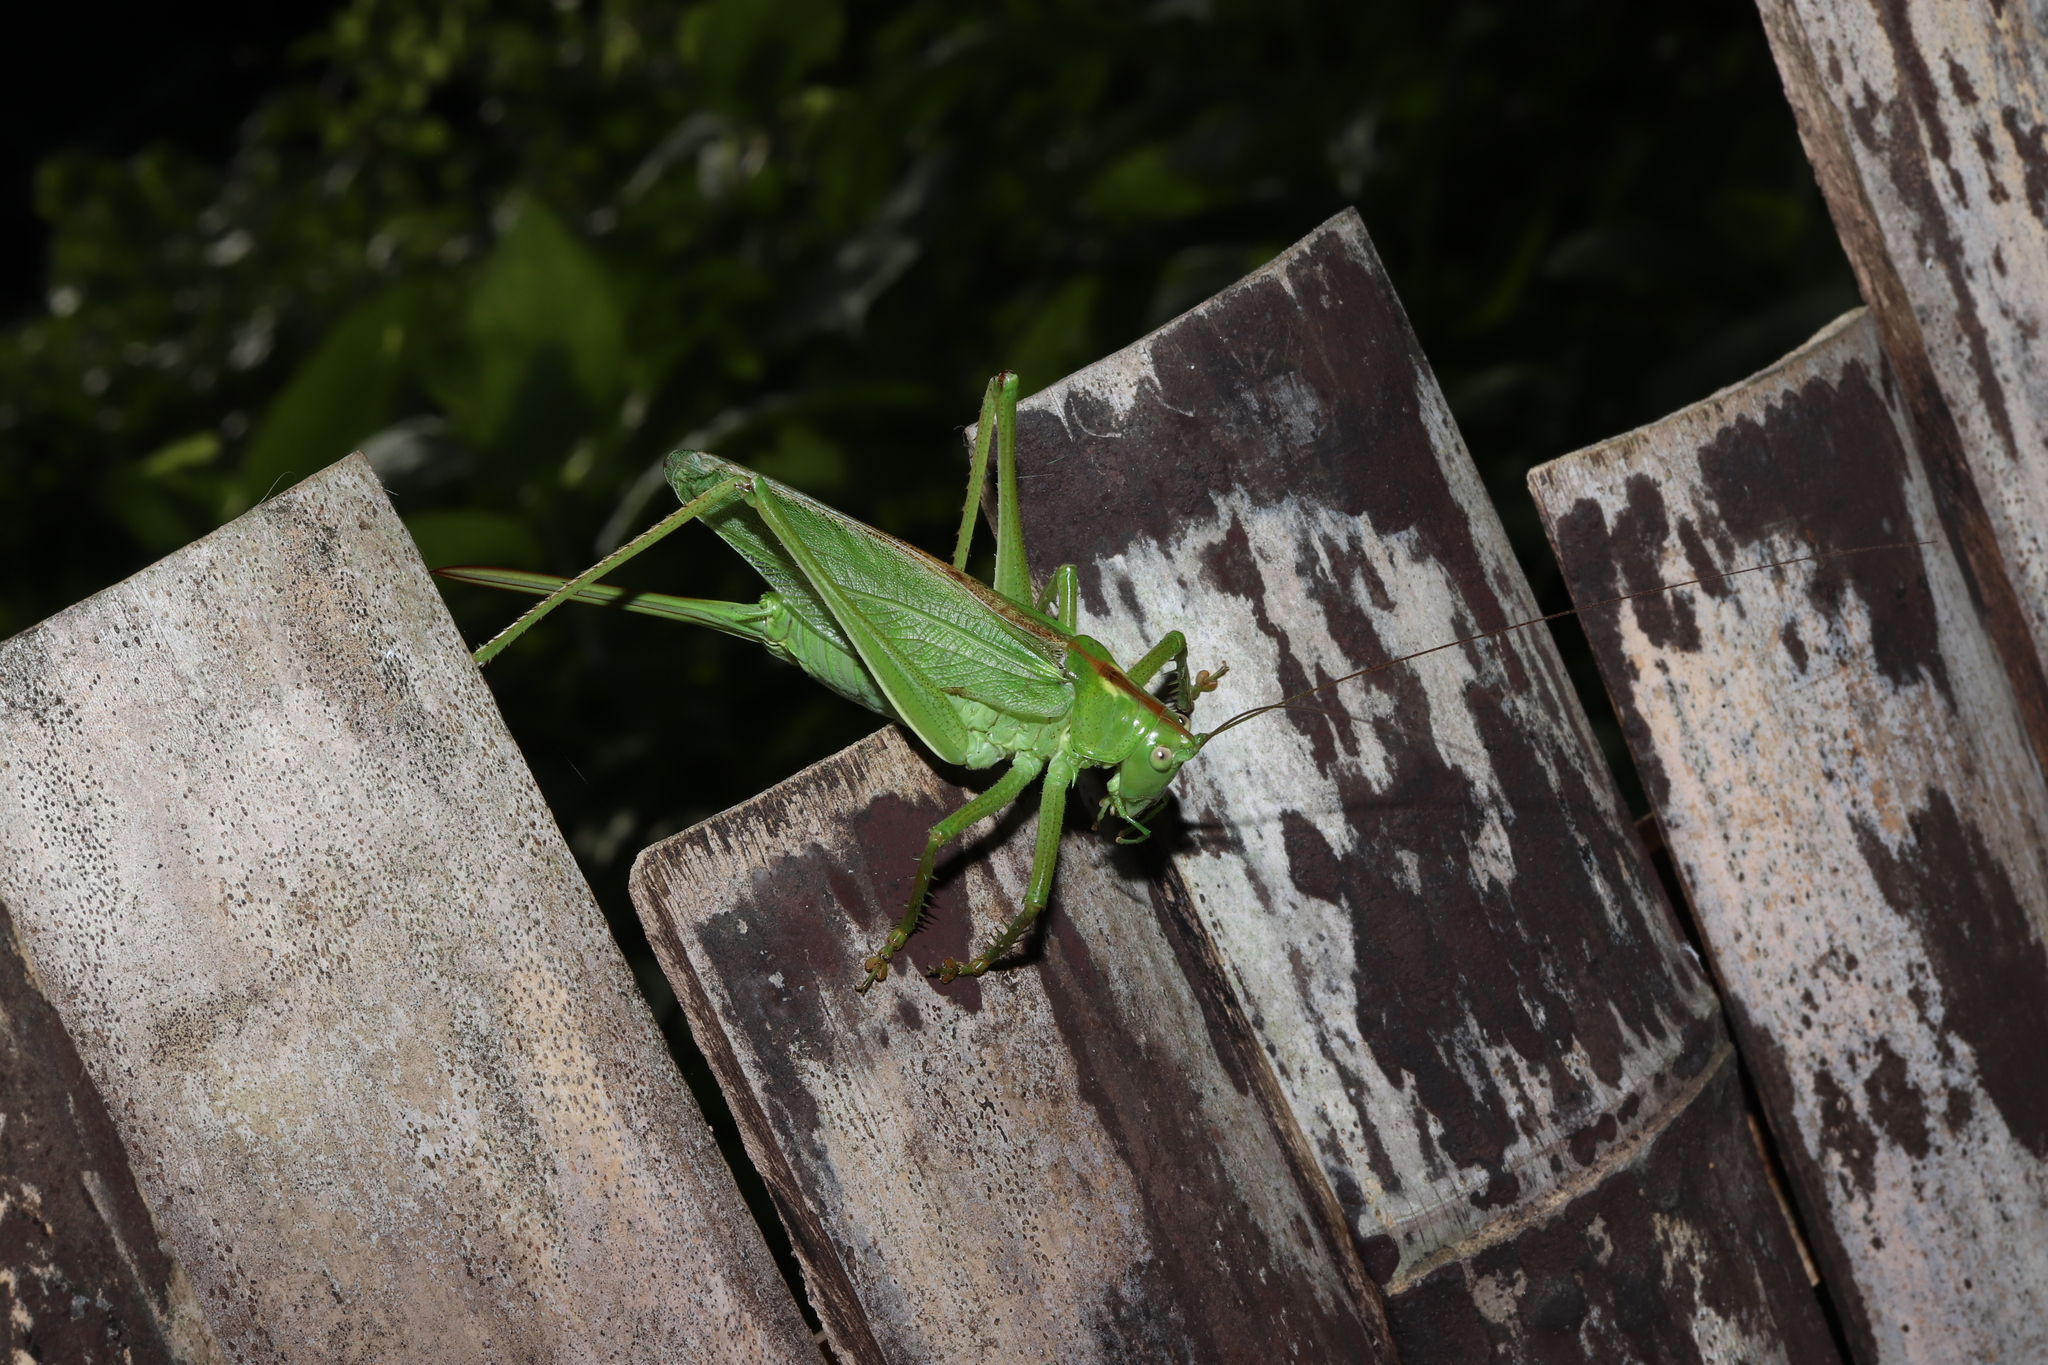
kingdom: Animalia
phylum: Arthropoda
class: Insecta
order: Orthoptera
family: Tettigoniidae
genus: Tettigonia
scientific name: Tettigonia orientalis
